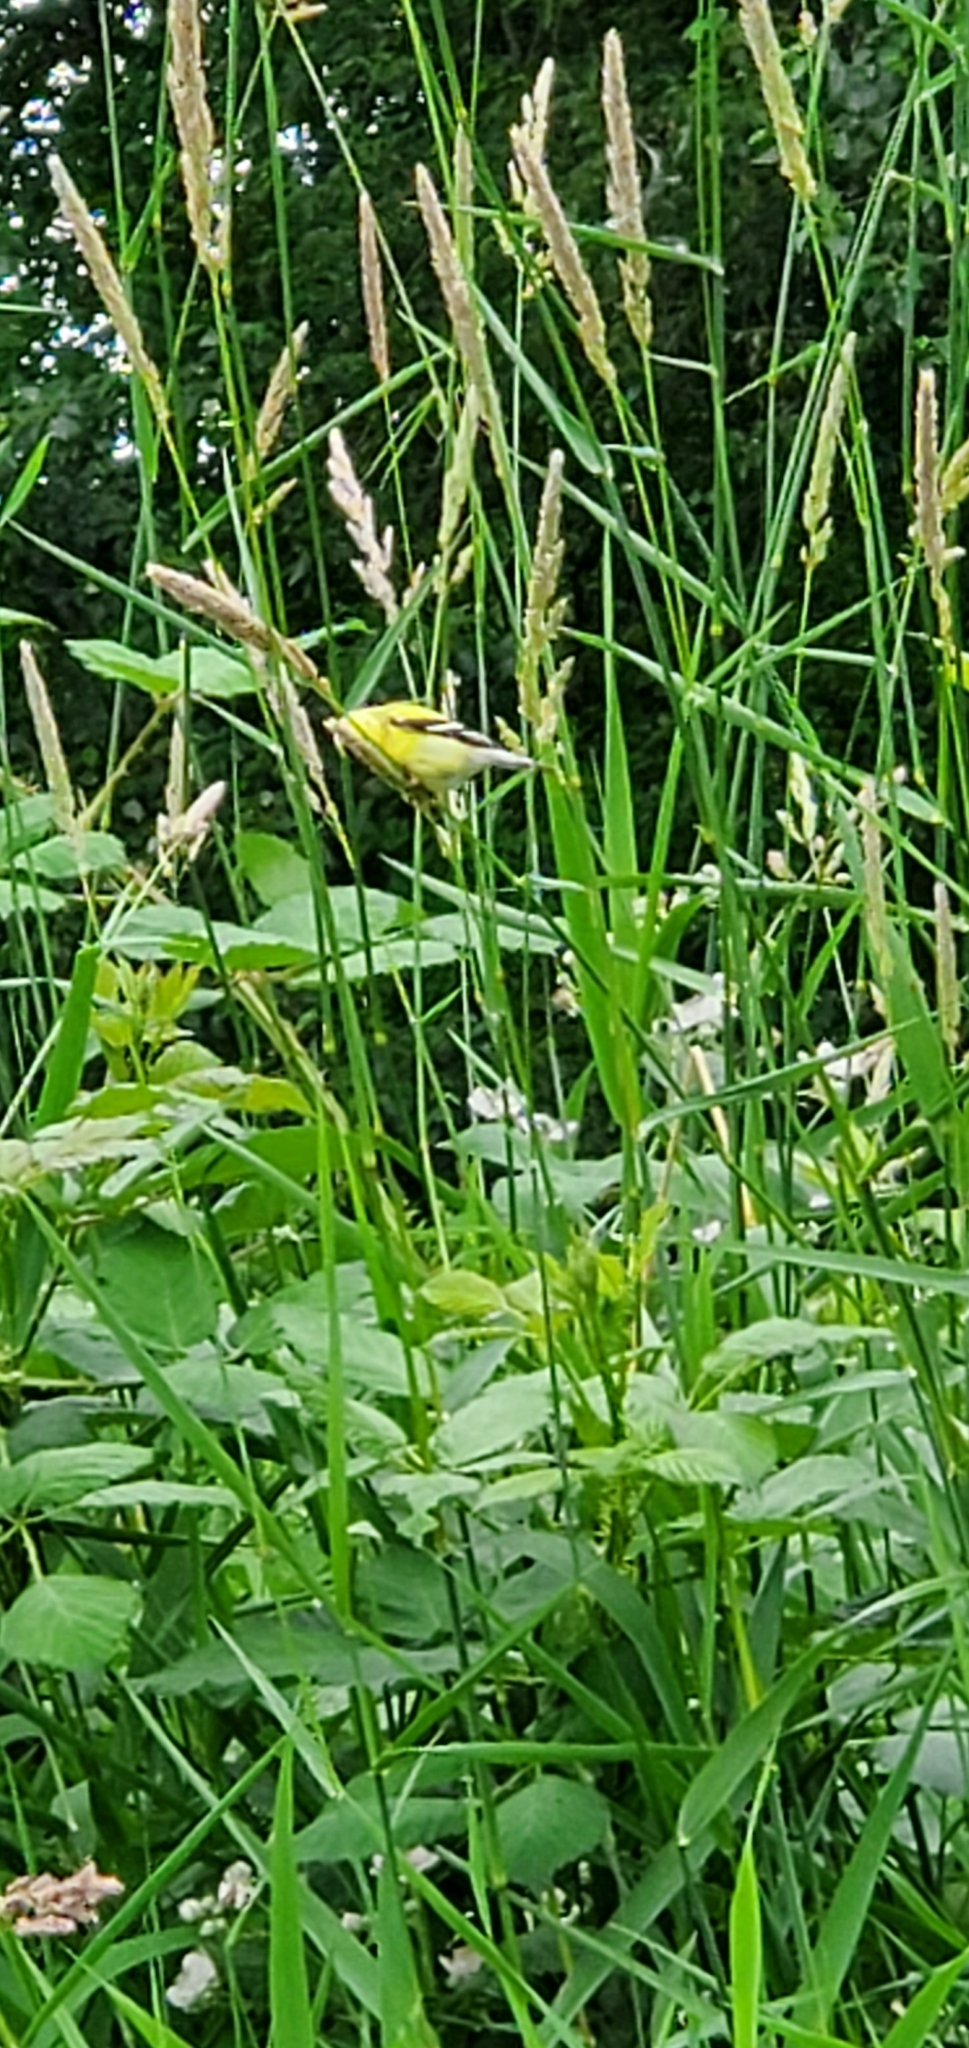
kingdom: Animalia
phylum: Chordata
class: Aves
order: Passeriformes
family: Fringillidae
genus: Spinus
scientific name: Spinus tristis
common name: American goldfinch
